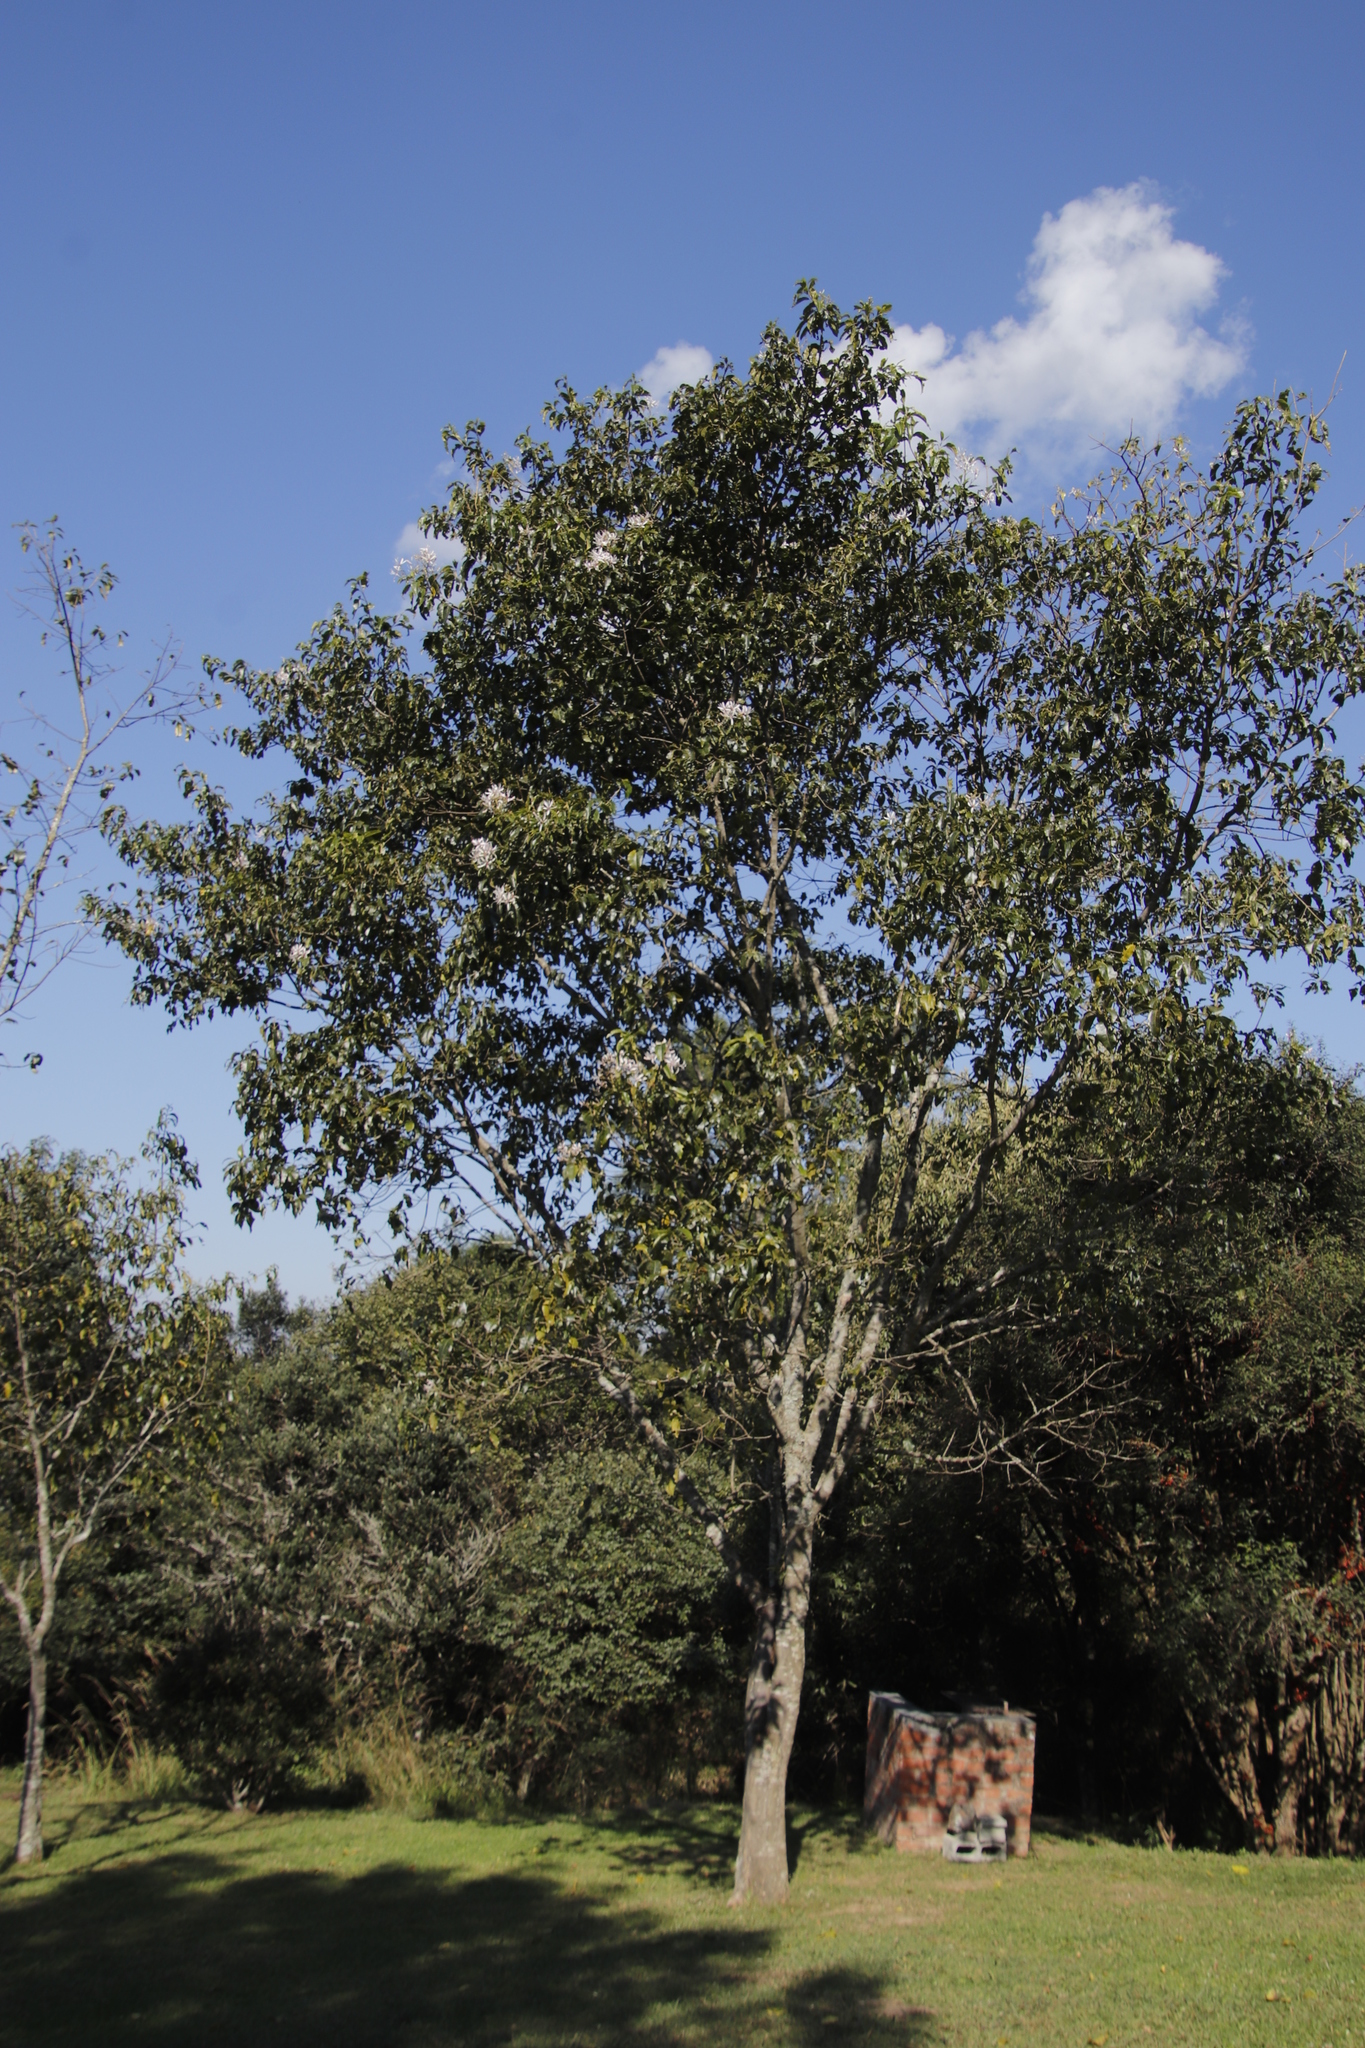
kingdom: Plantae
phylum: Tracheophyta
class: Magnoliopsida
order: Sapindales
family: Rutaceae
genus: Calodendrum
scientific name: Calodendrum capense
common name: Cape chestnut
